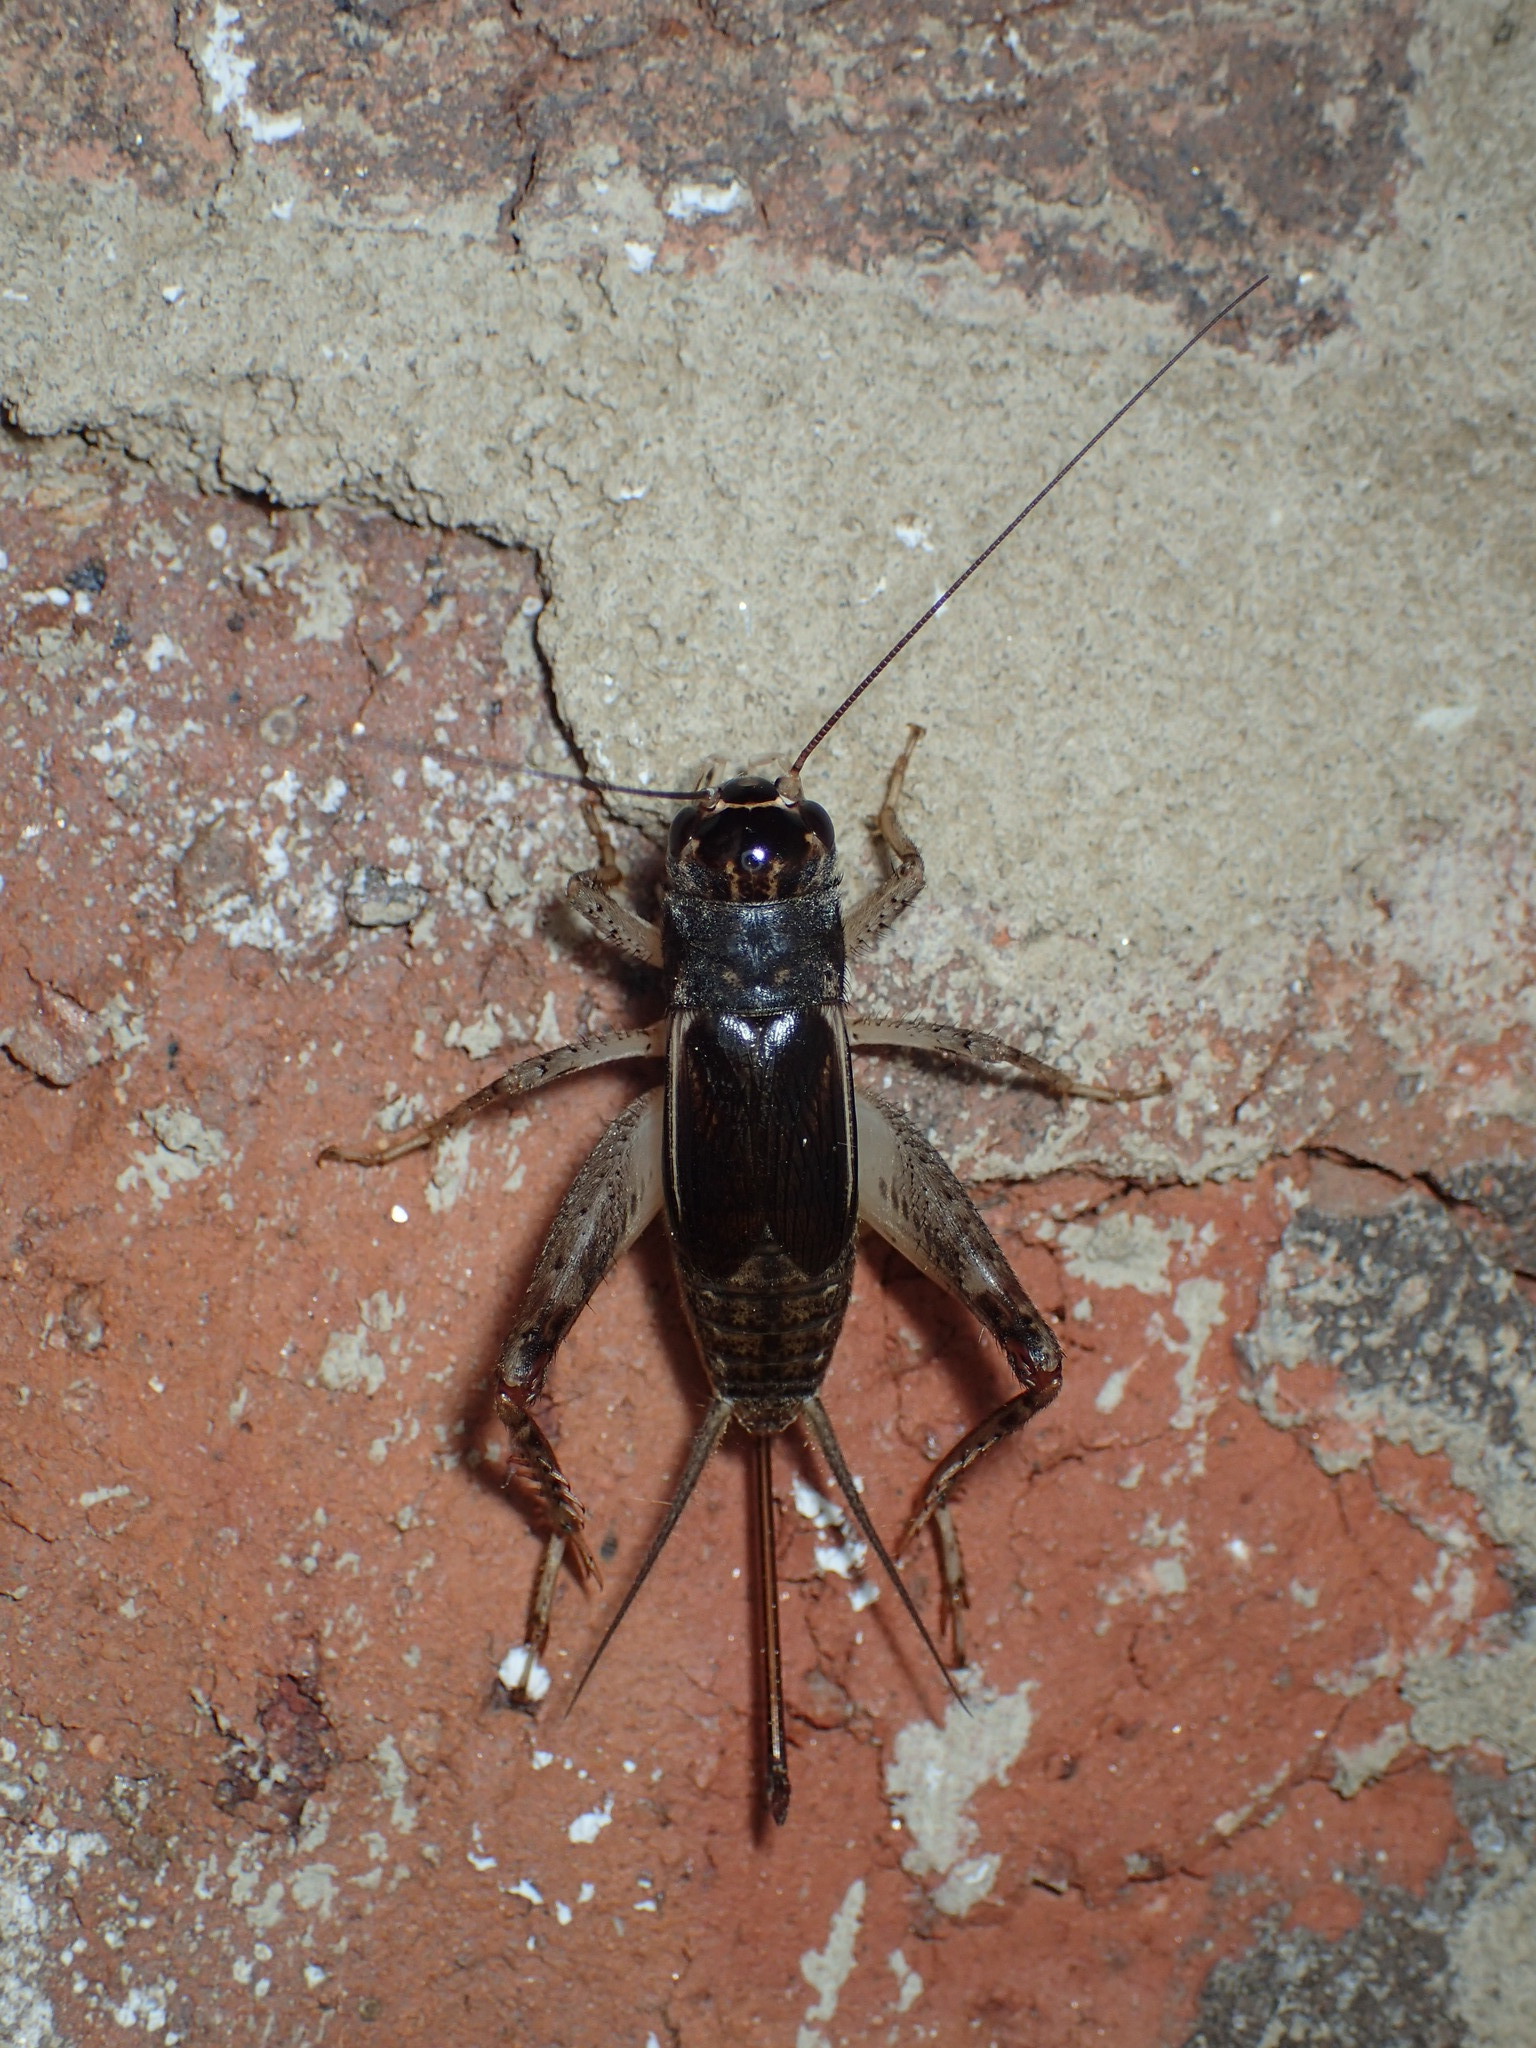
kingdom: Animalia
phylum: Arthropoda
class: Insecta
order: Orthoptera
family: Gryllidae
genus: Velarifictorus
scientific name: Velarifictorus micado
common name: Japanese burrowing cricket
